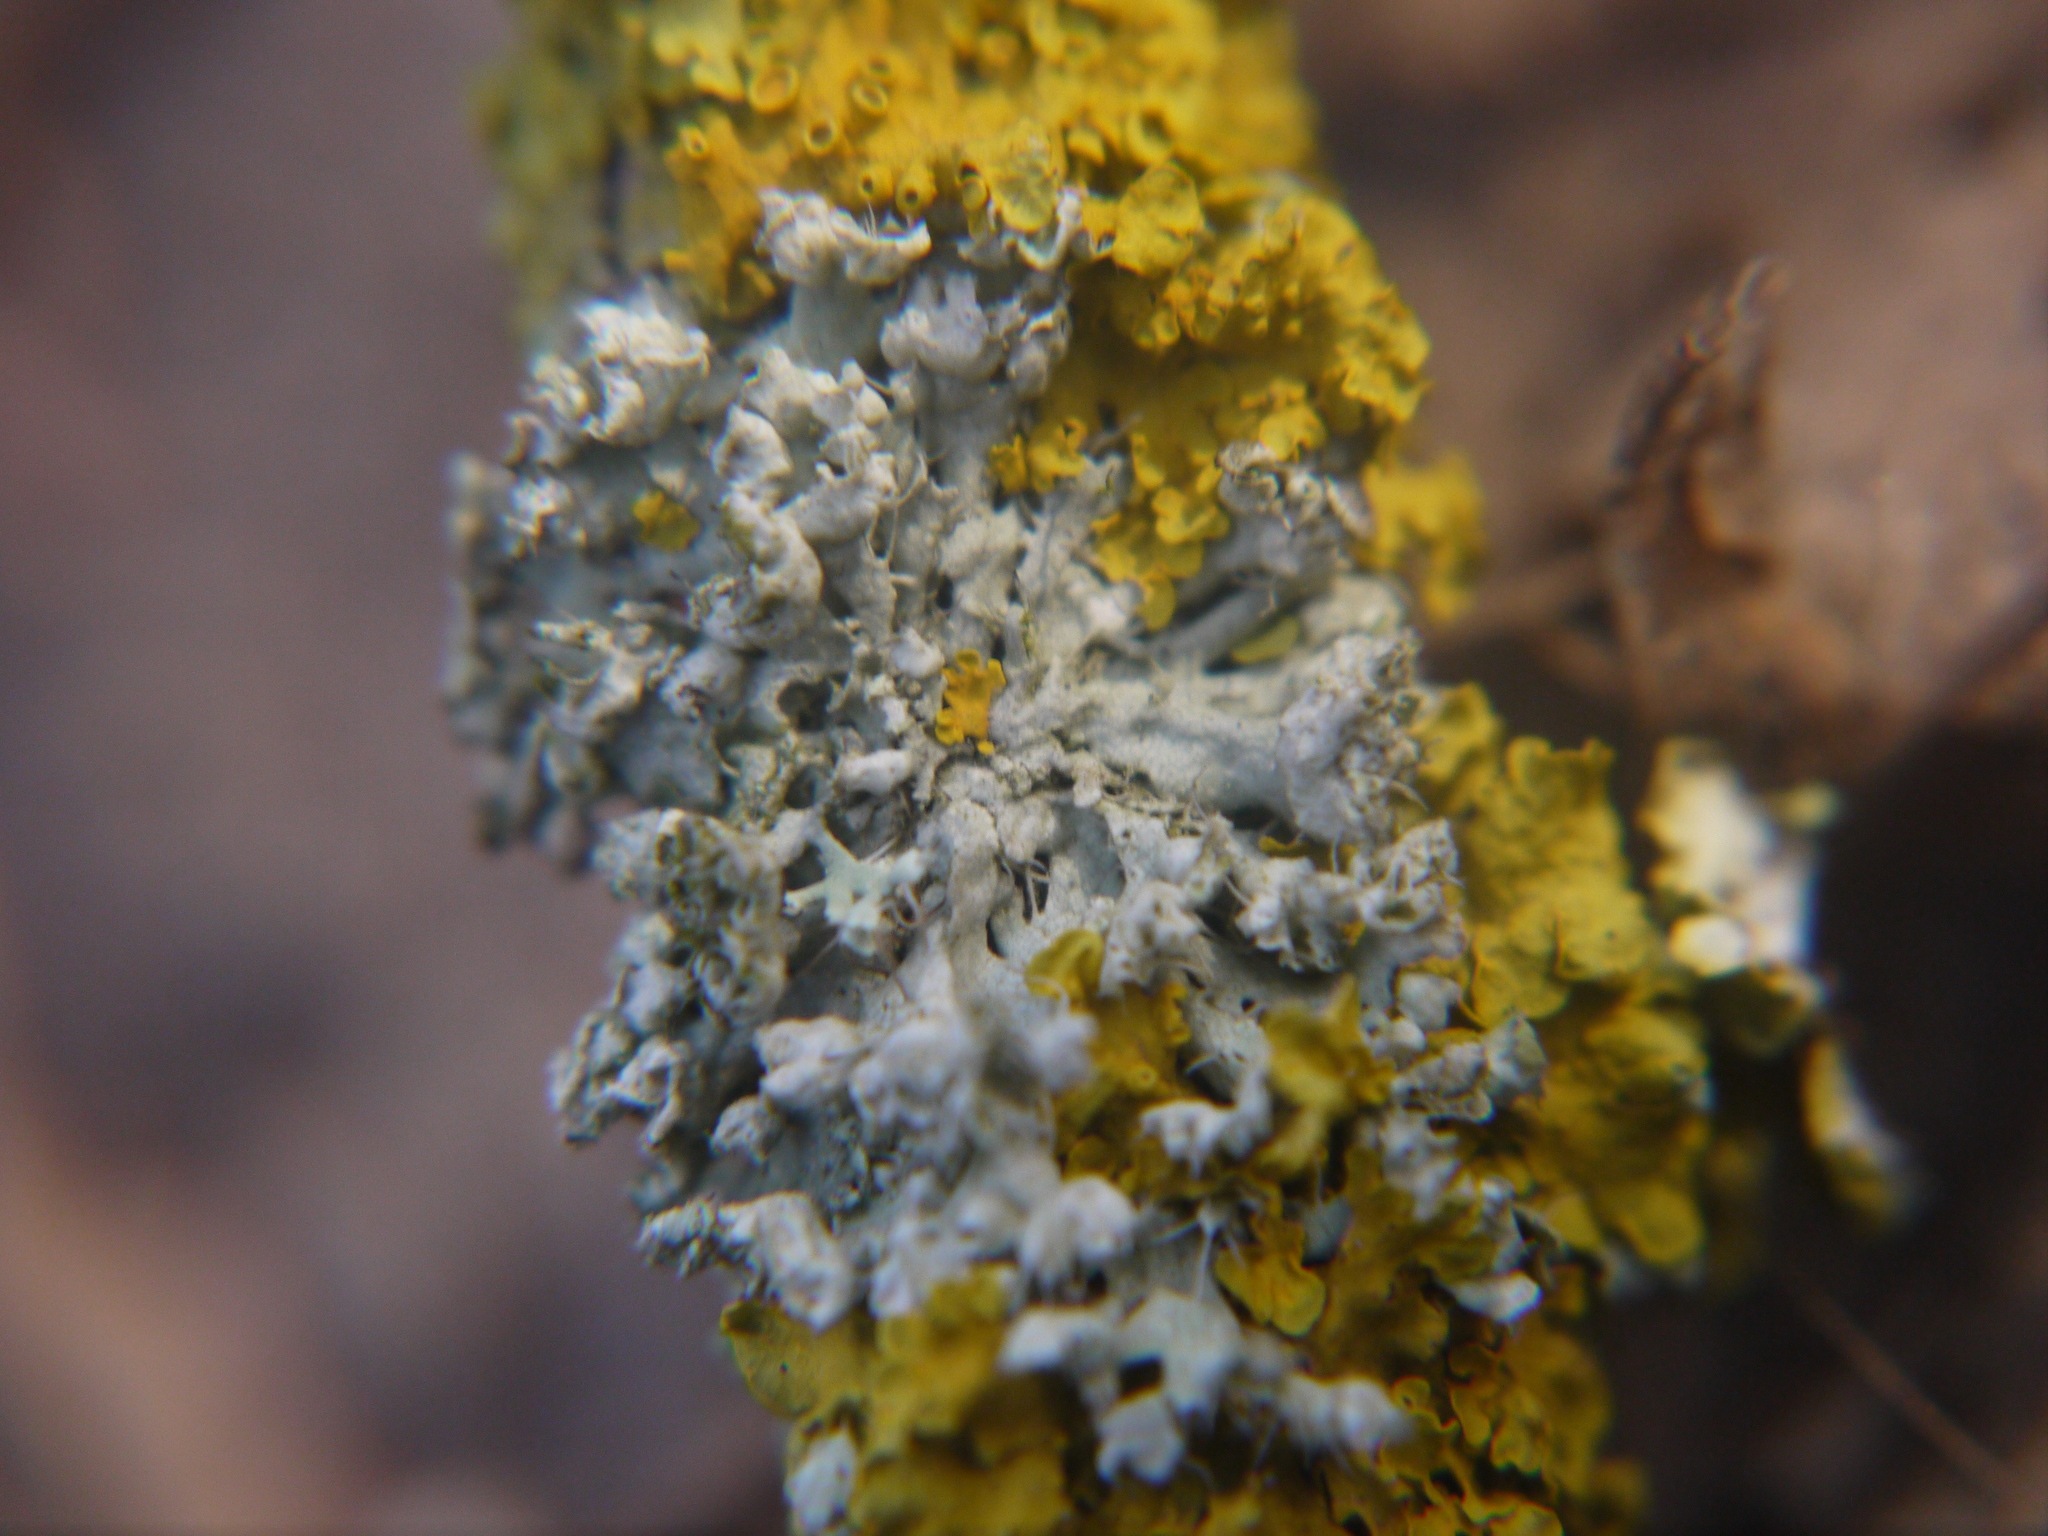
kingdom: Fungi
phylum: Ascomycota
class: Lecanoromycetes
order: Caliciales
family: Physciaceae
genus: Physcia
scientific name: Physcia adscendens
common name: Hooded rosette lichen
